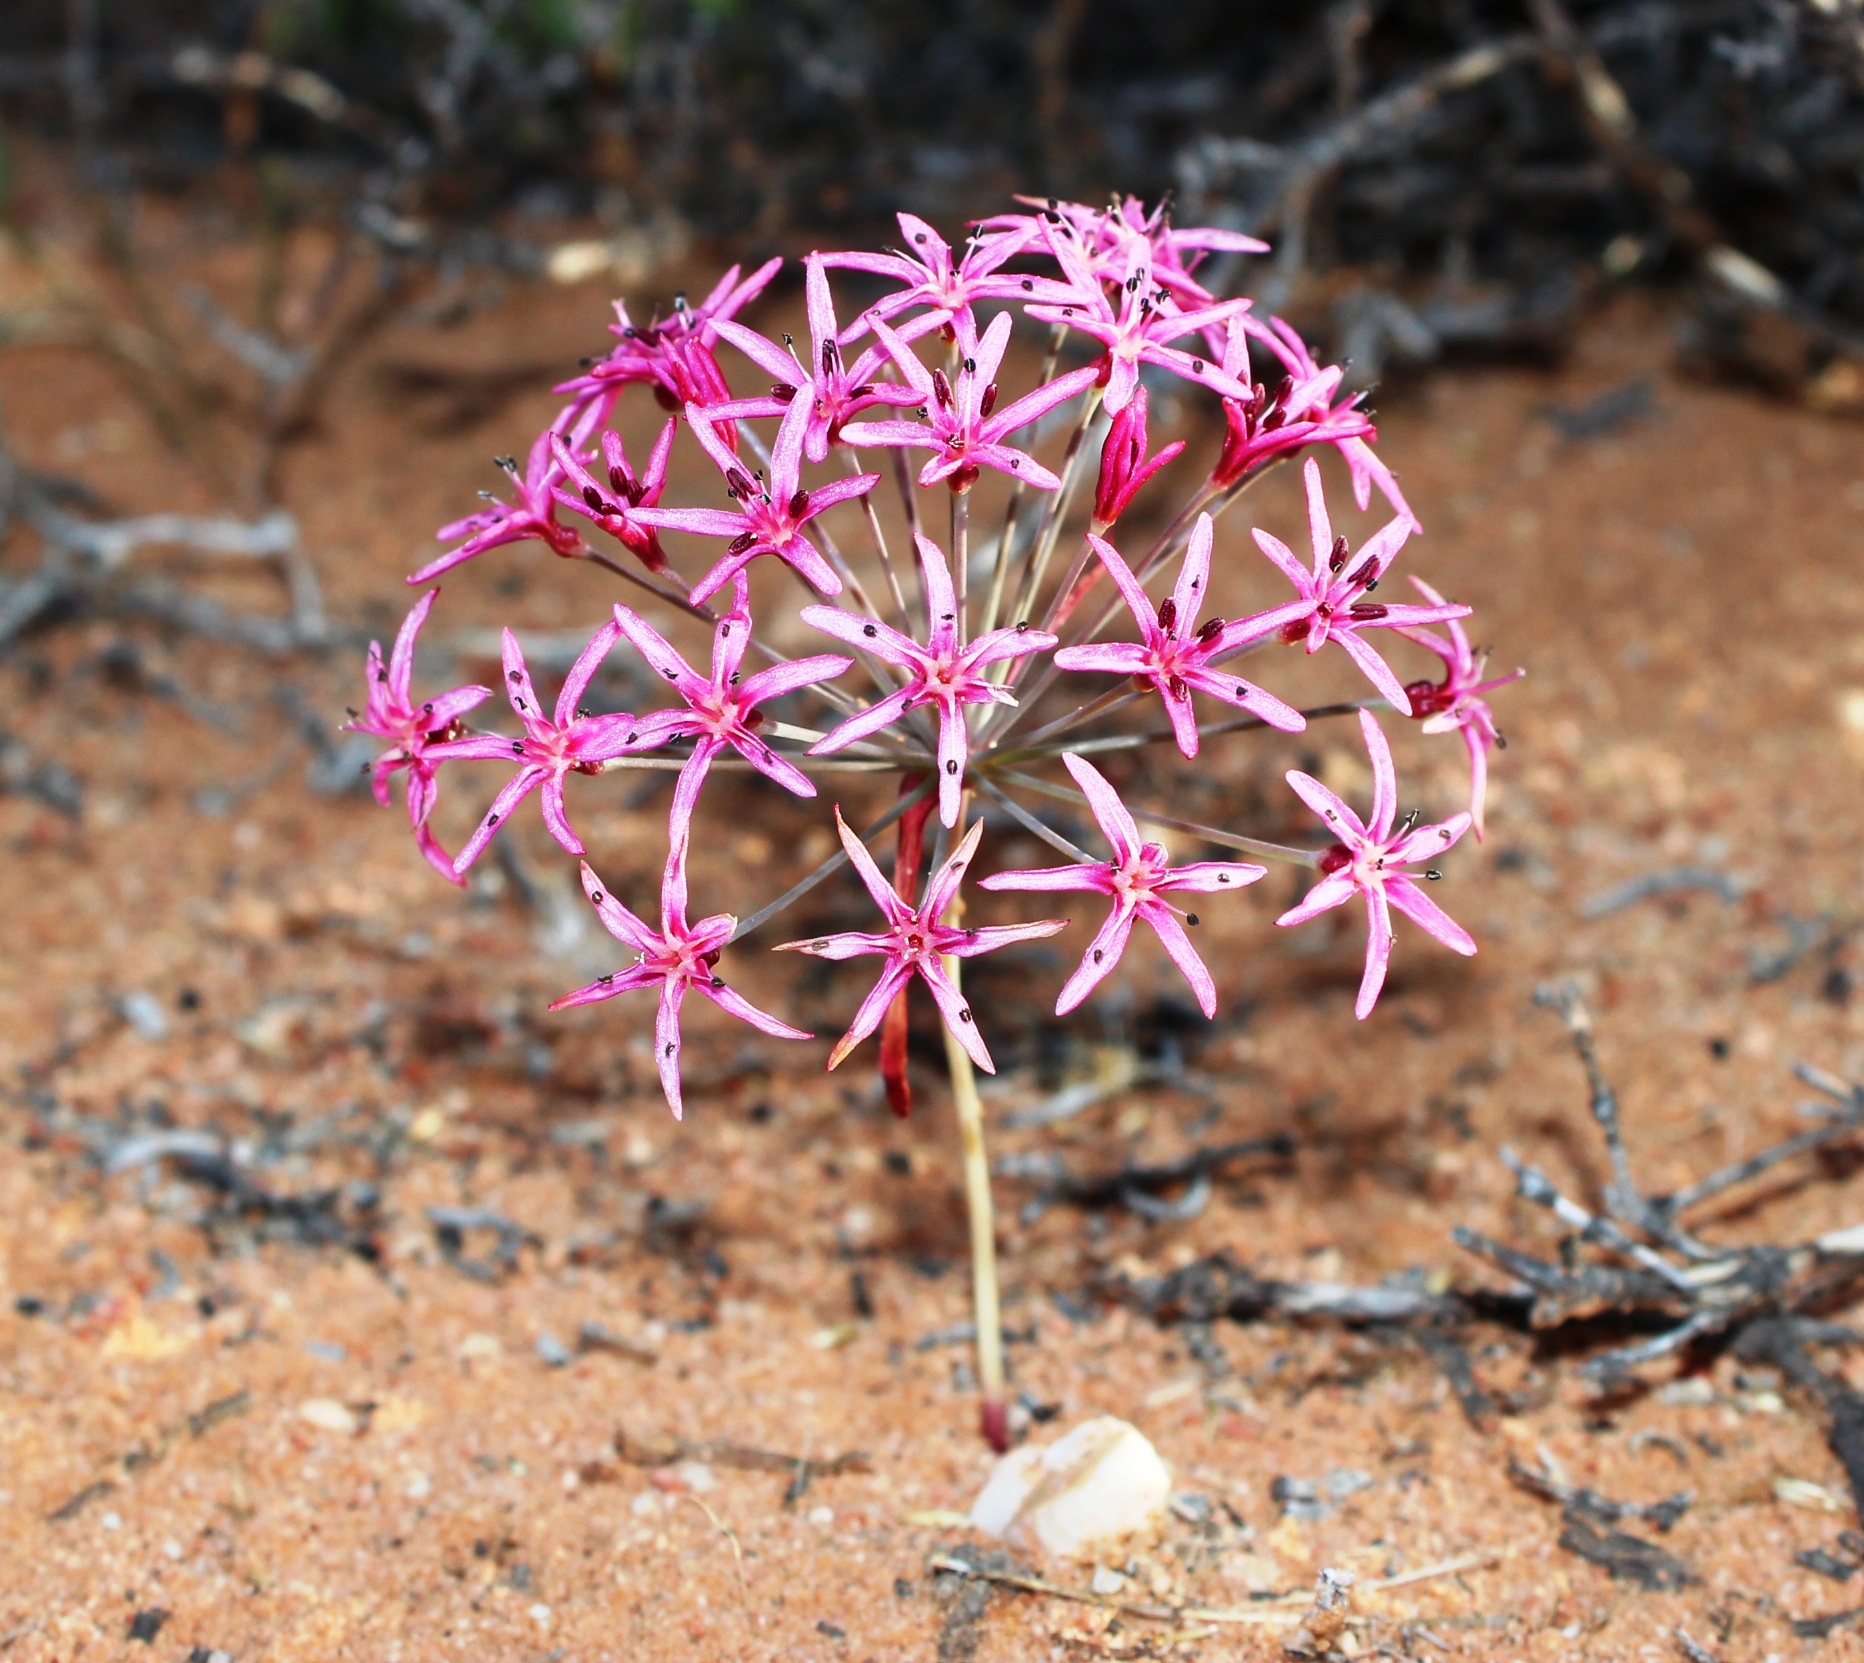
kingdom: Plantae
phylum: Tracheophyta
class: Liliopsida
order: Asparagales
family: Amaryllidaceae
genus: Hessea
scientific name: Hessea stellaris
